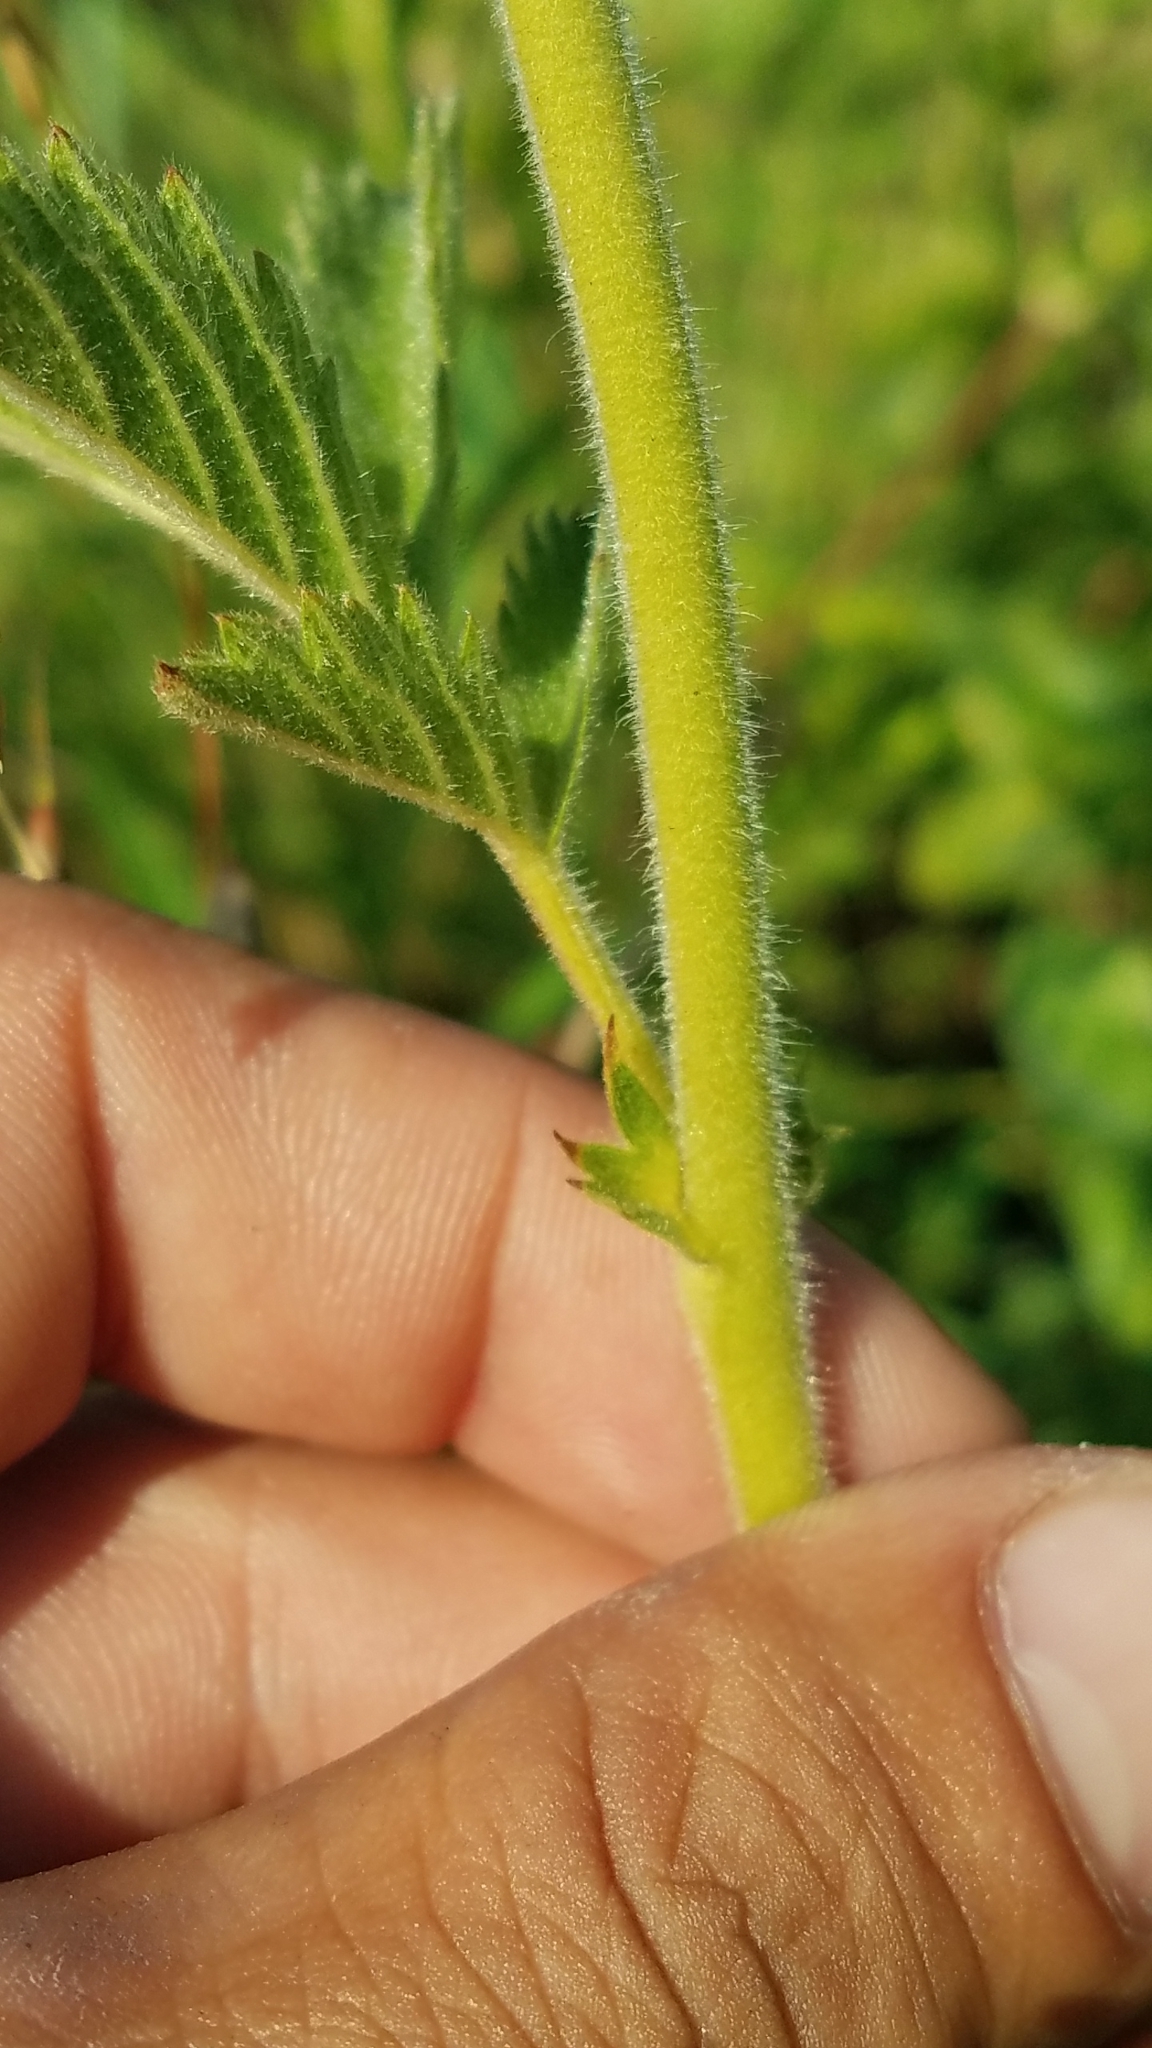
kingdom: Plantae
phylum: Tracheophyta
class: Magnoliopsida
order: Rosales
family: Rosaceae
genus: Drymocallis
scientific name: Drymocallis arguta
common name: Tall cinquefoil
